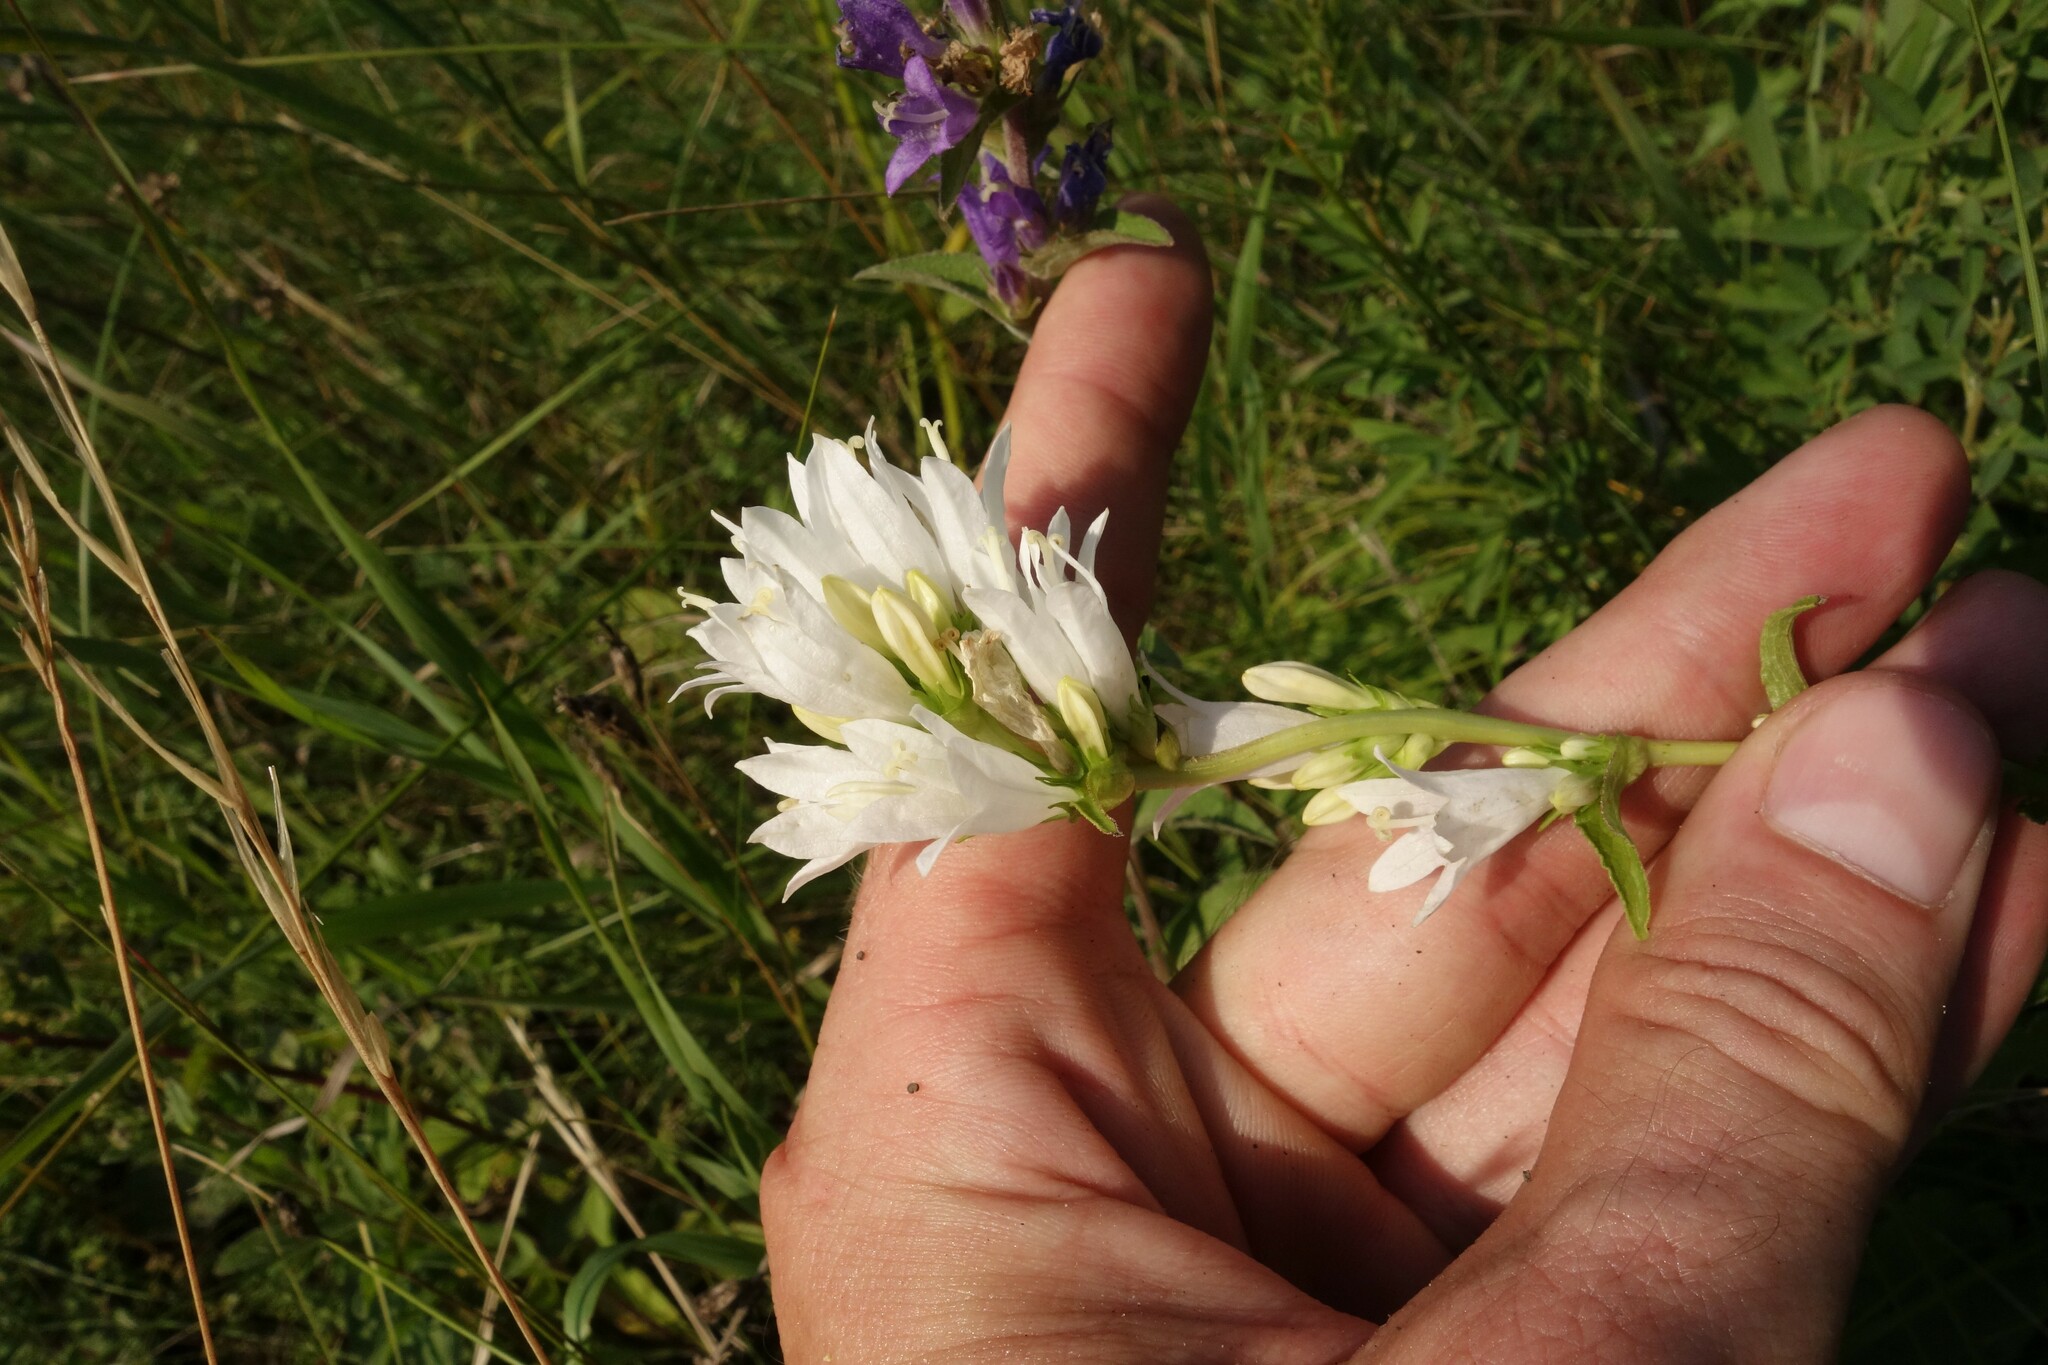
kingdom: Plantae
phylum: Tracheophyta
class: Magnoliopsida
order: Asterales
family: Campanulaceae
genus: Campanula
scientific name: Campanula glomerata
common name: Clustered bellflower
